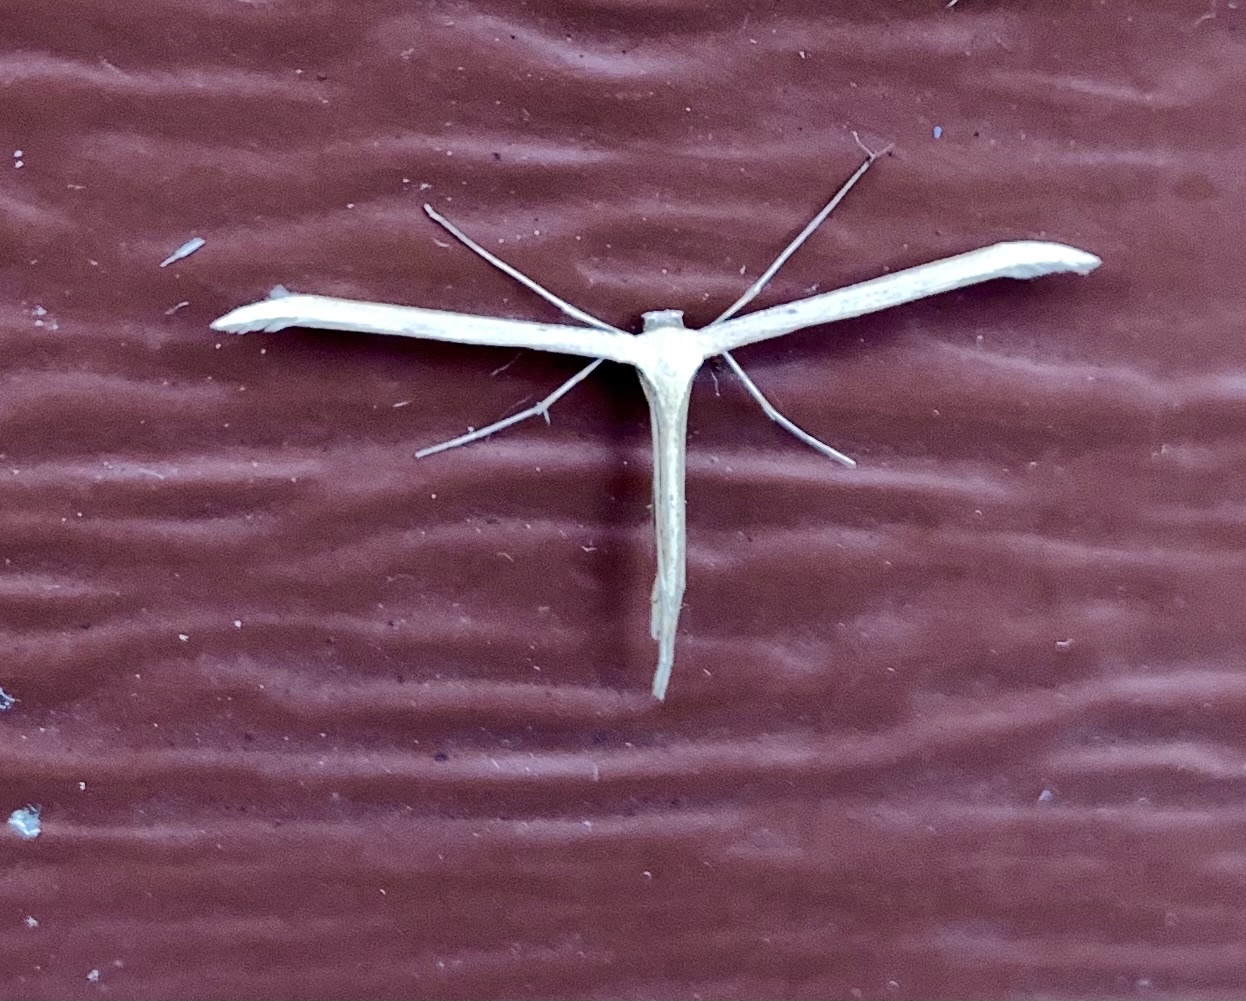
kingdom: Animalia
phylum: Arthropoda
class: Insecta
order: Lepidoptera
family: Pterophoridae
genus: Emmelina
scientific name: Emmelina monodactyla
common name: Common plume
